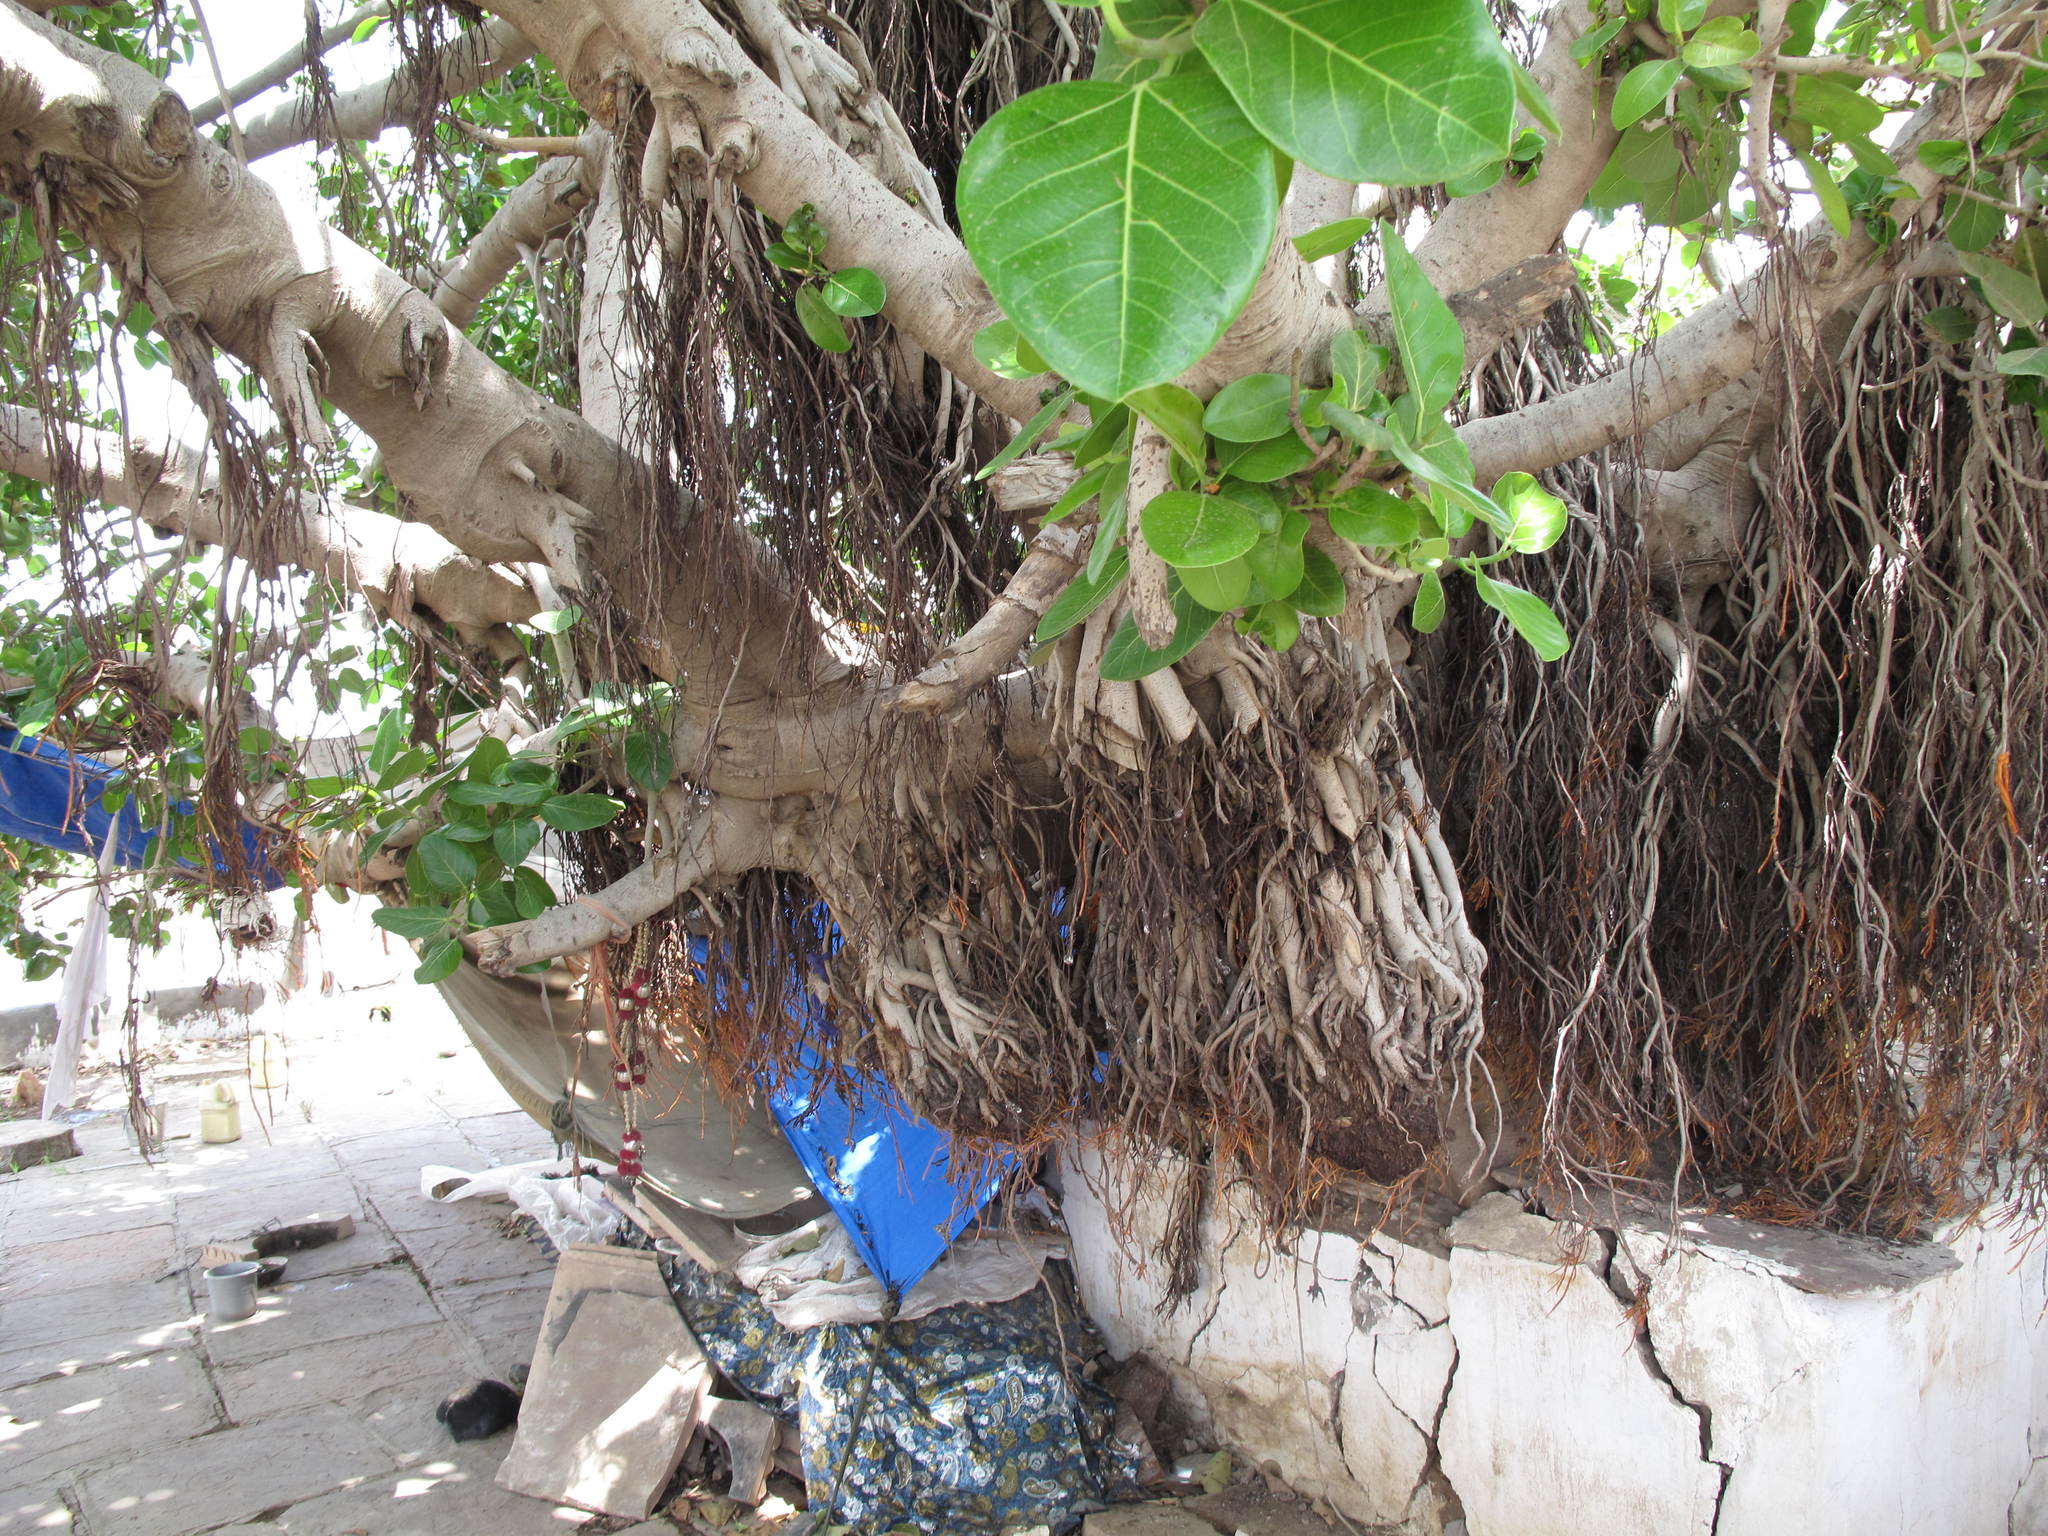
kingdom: Plantae
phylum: Tracheophyta
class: Magnoliopsida
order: Rosales
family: Moraceae
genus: Ficus
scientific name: Ficus benghalensis
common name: Indian banyan
